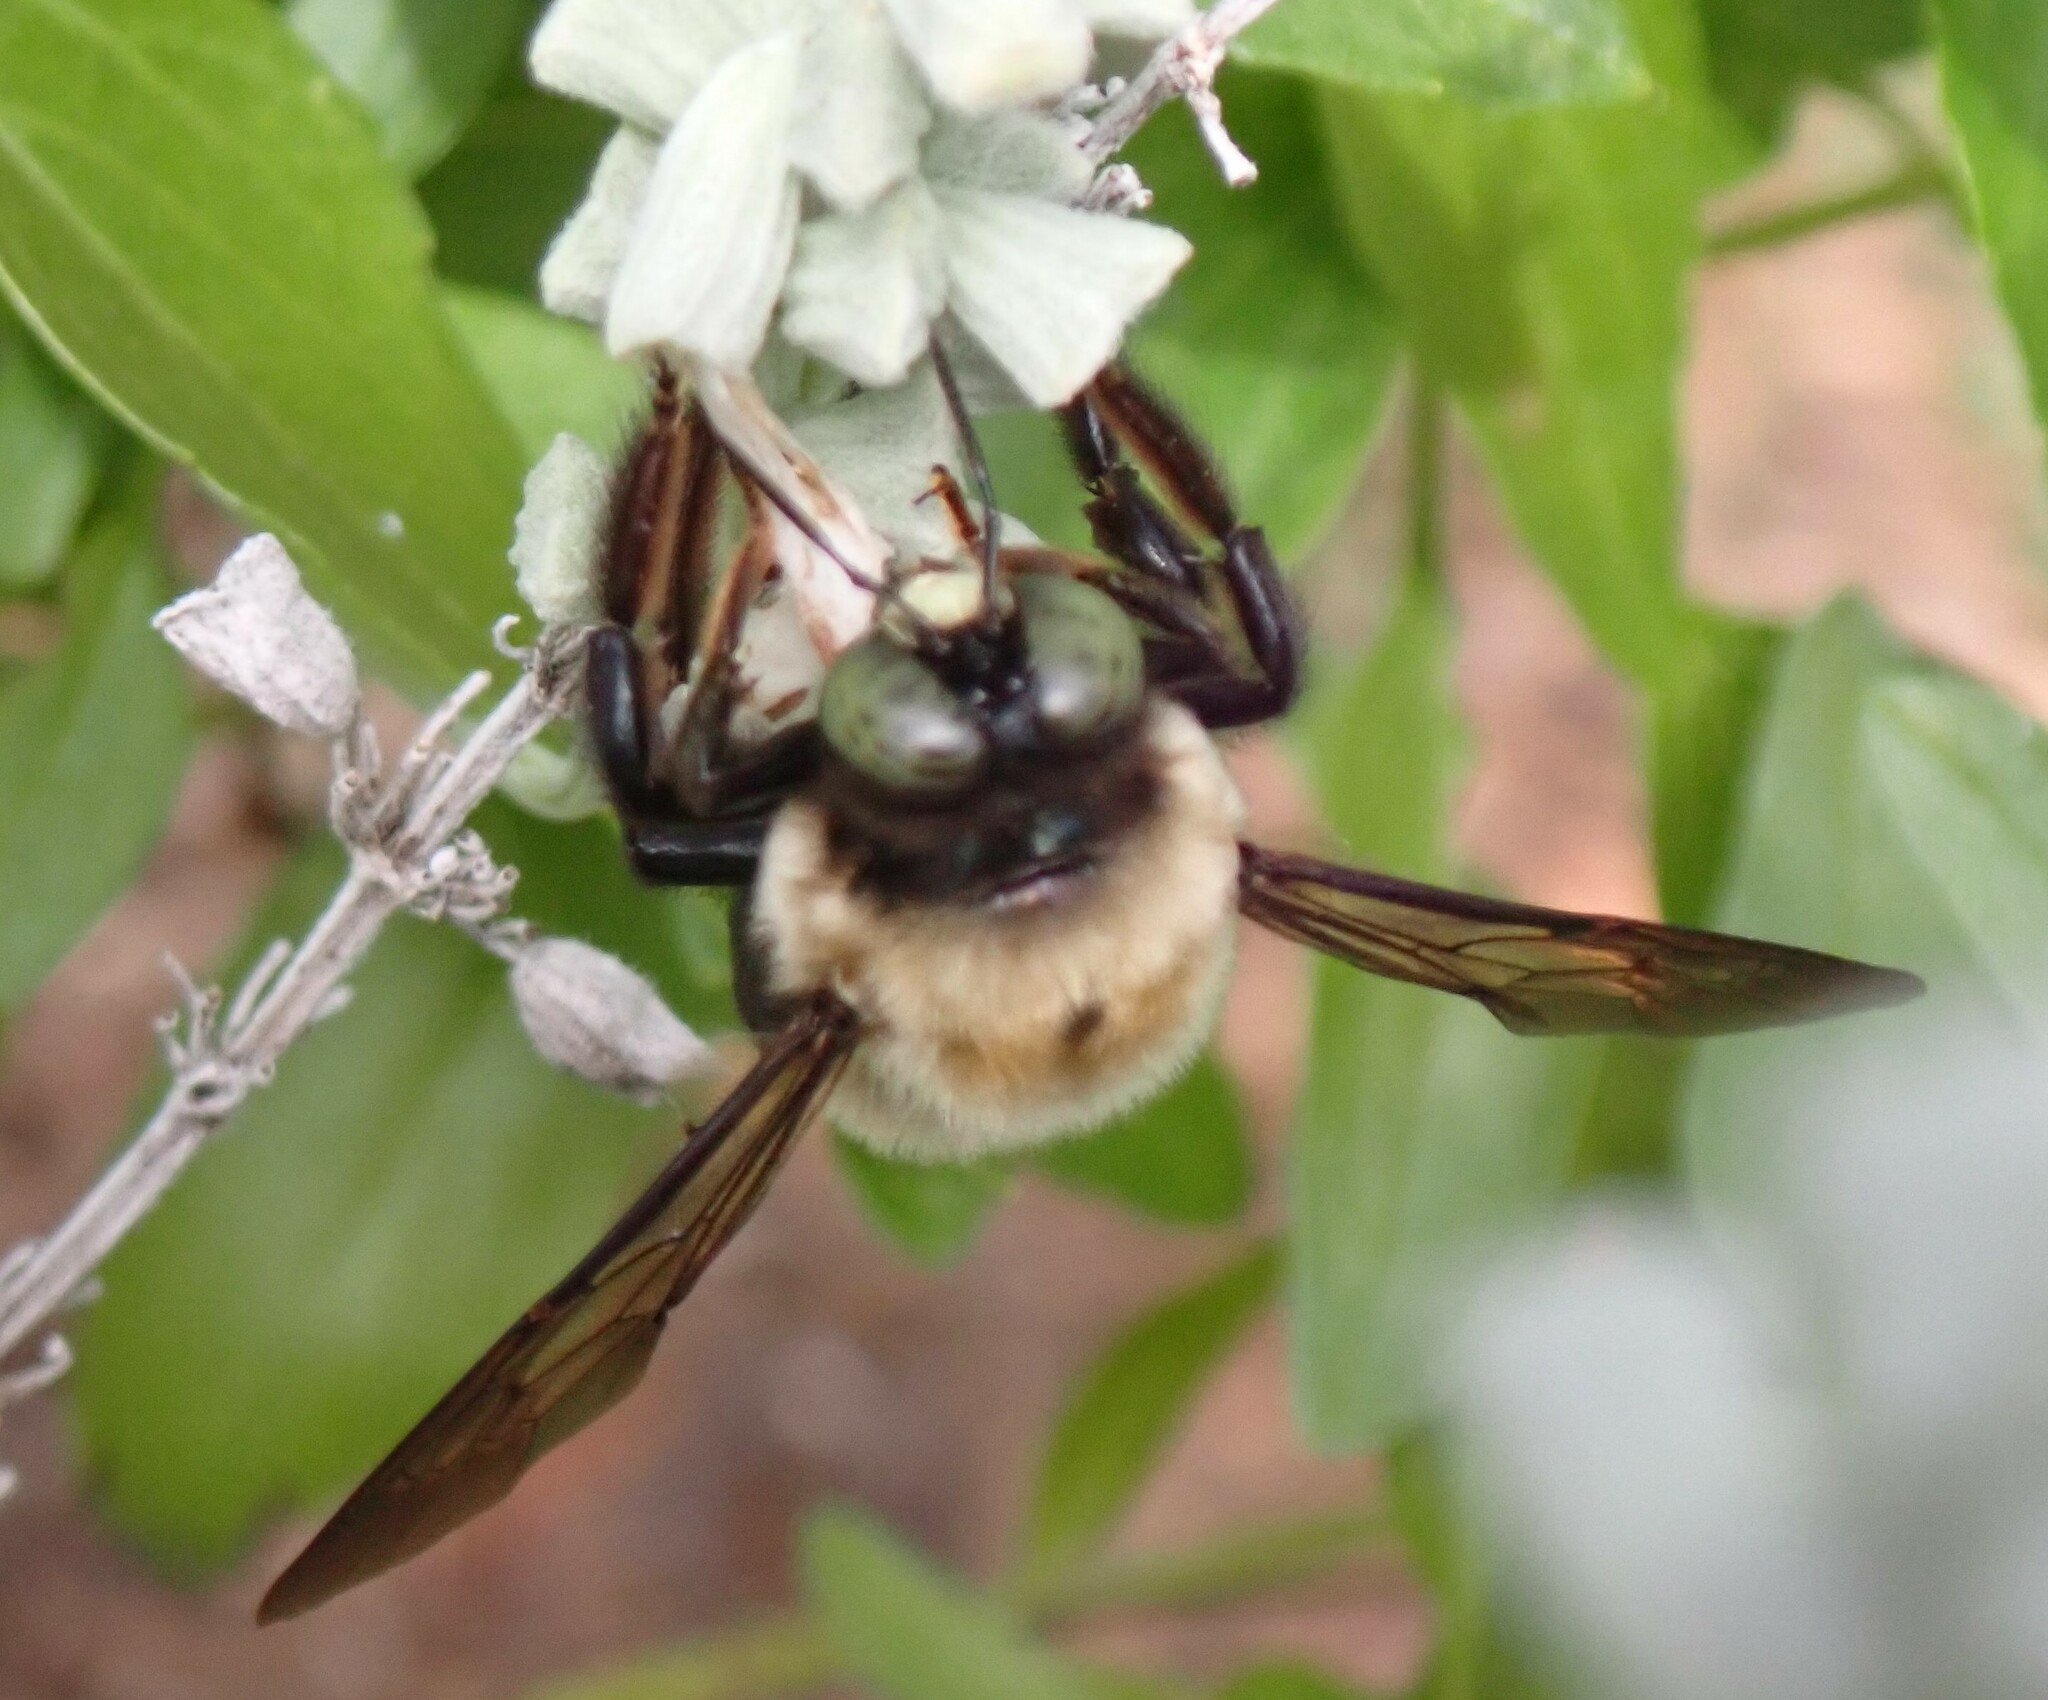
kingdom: Animalia
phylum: Arthropoda
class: Insecta
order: Hymenoptera
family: Apidae
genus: Xylocopa
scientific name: Xylocopa virginica
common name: Carpenter bee
